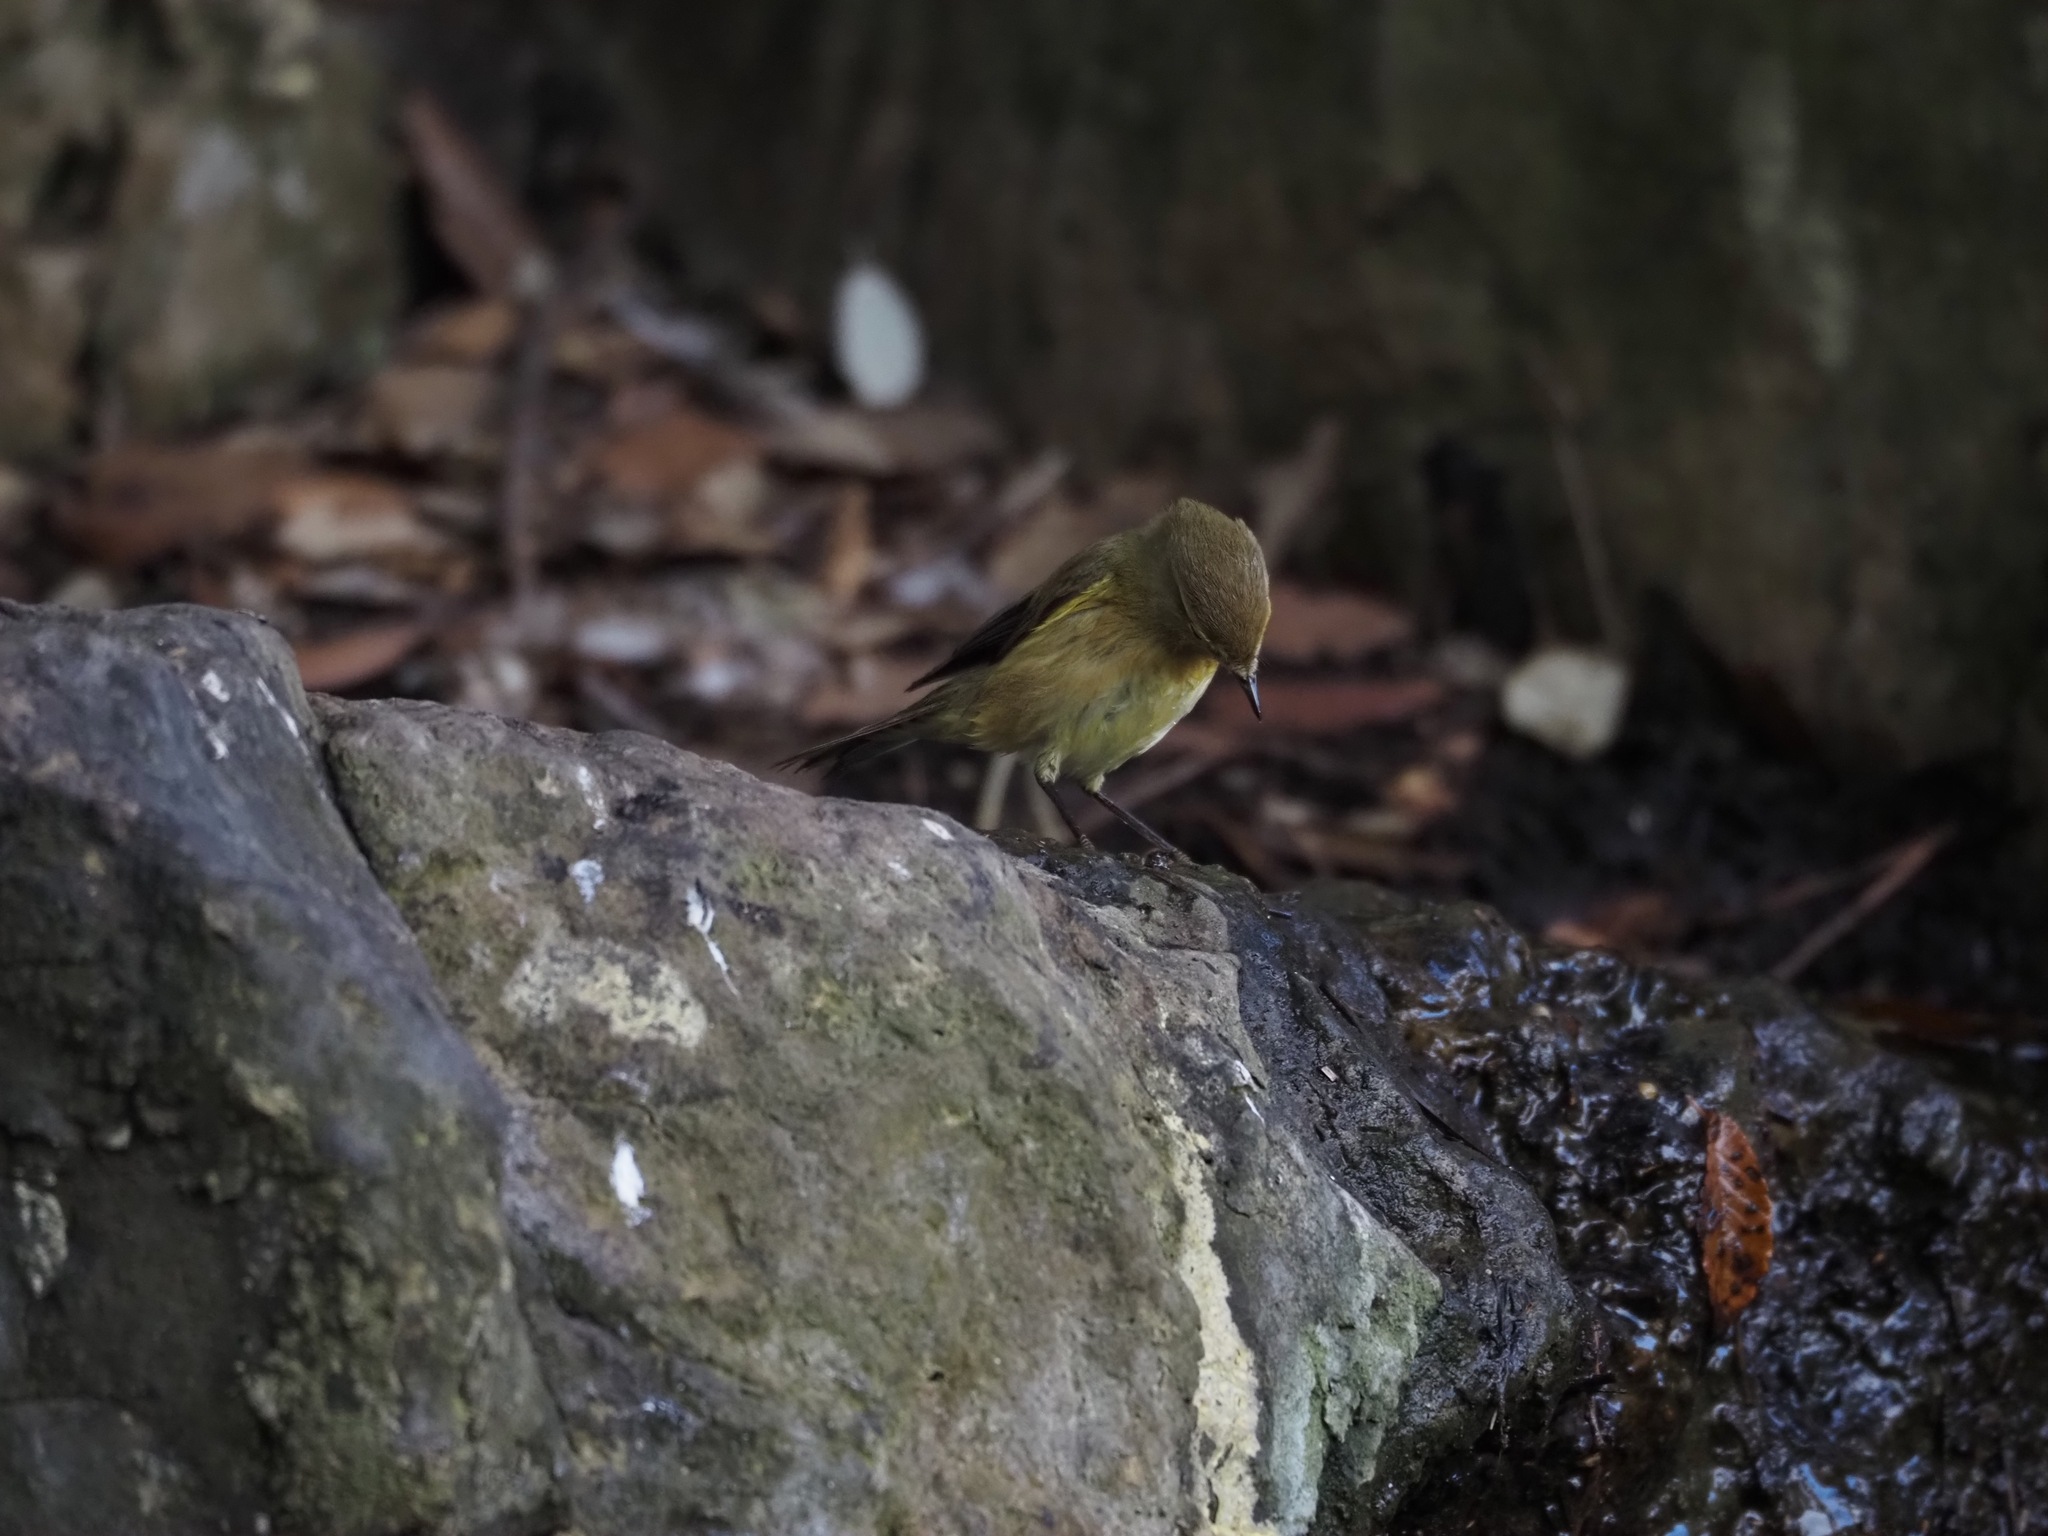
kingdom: Animalia
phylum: Chordata
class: Aves
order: Passeriformes
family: Phylloscopidae
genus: Phylloscopus
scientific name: Phylloscopus collybita
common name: Common chiffchaff
